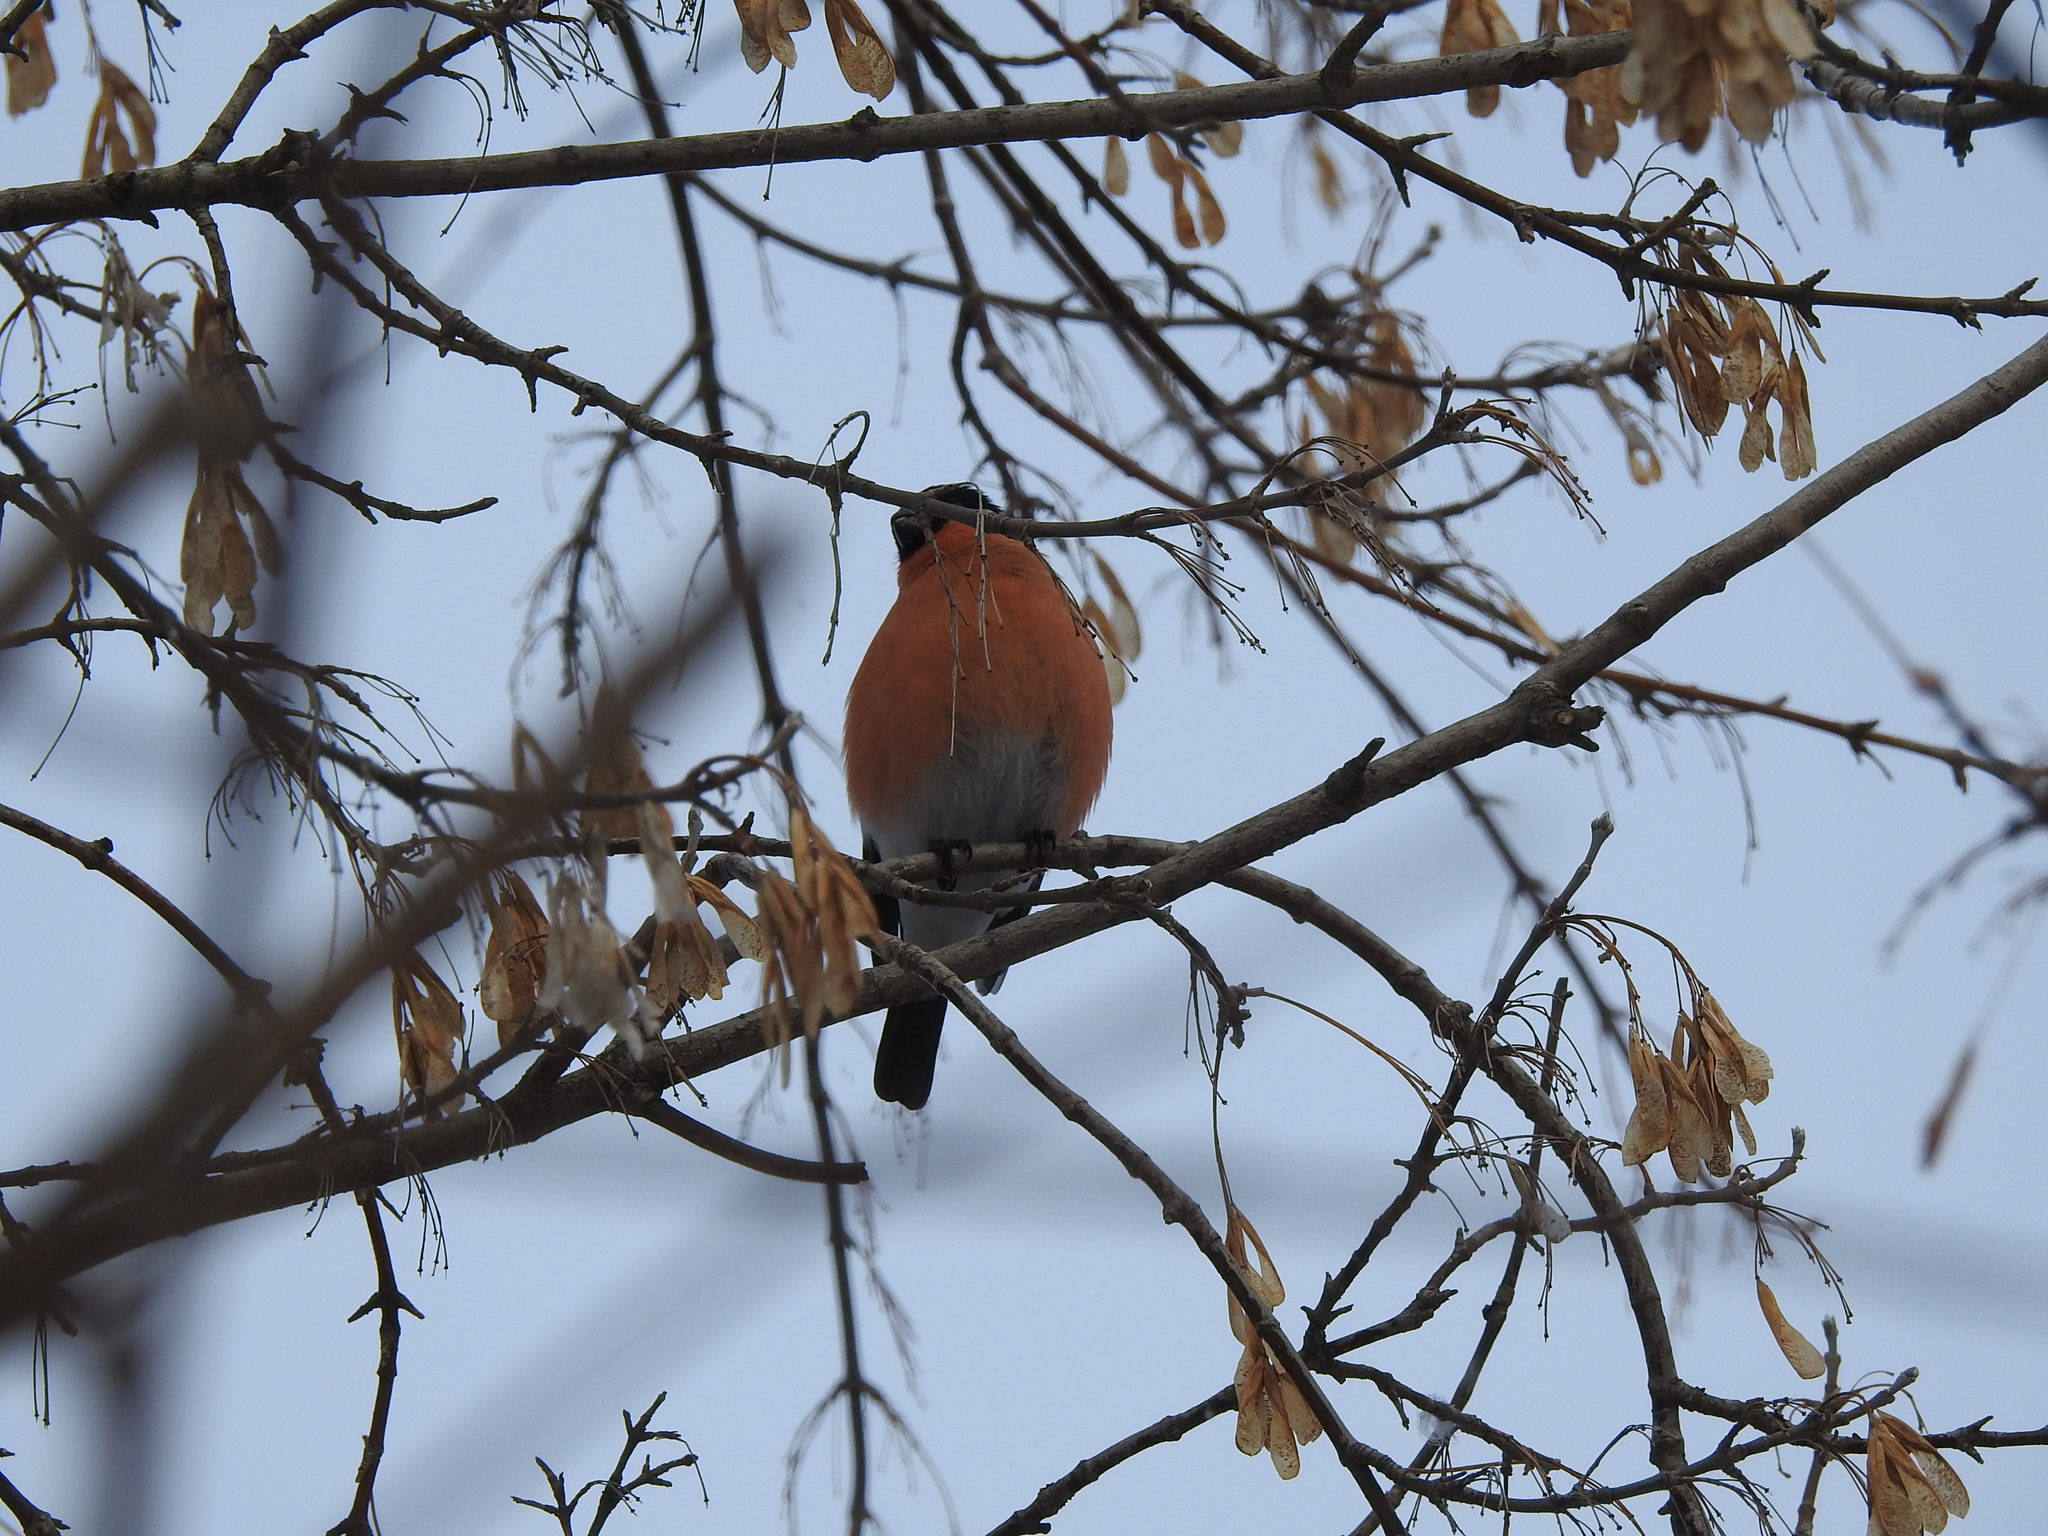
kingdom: Animalia
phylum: Chordata
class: Aves
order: Passeriformes
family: Fringillidae
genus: Pyrrhula
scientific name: Pyrrhula pyrrhula
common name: Eurasian bullfinch
